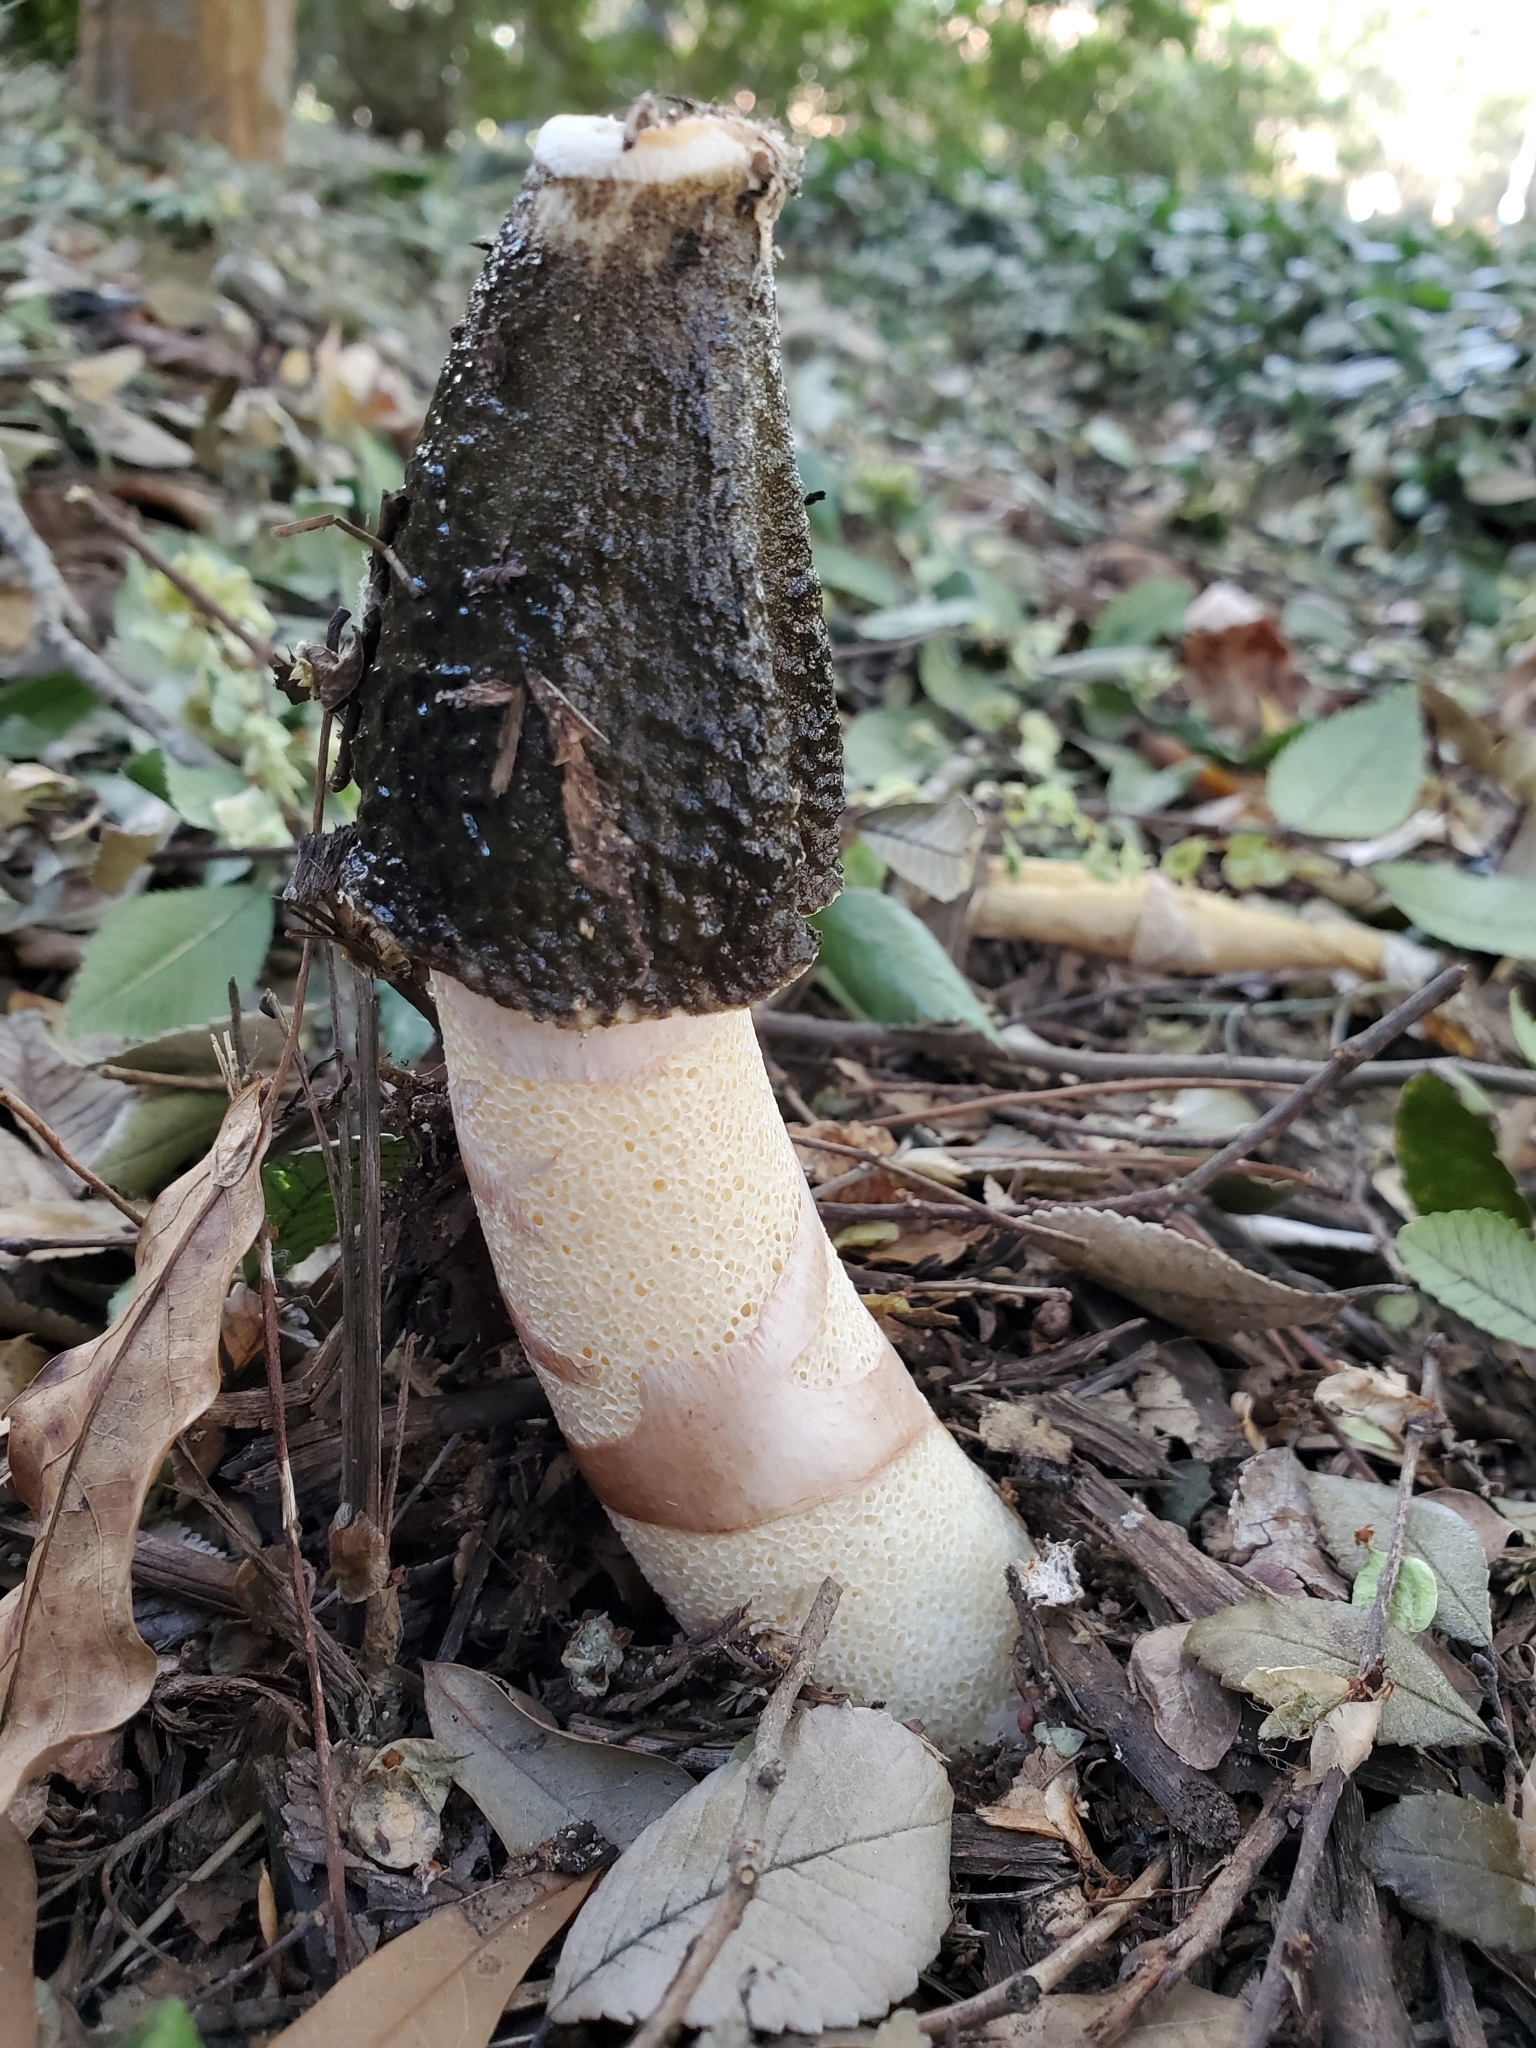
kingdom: Fungi
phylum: Basidiomycota
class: Agaricomycetes
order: Phallales
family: Phallaceae
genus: Phallus
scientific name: Phallus ravenelii
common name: Ravenel's stinkhorn
